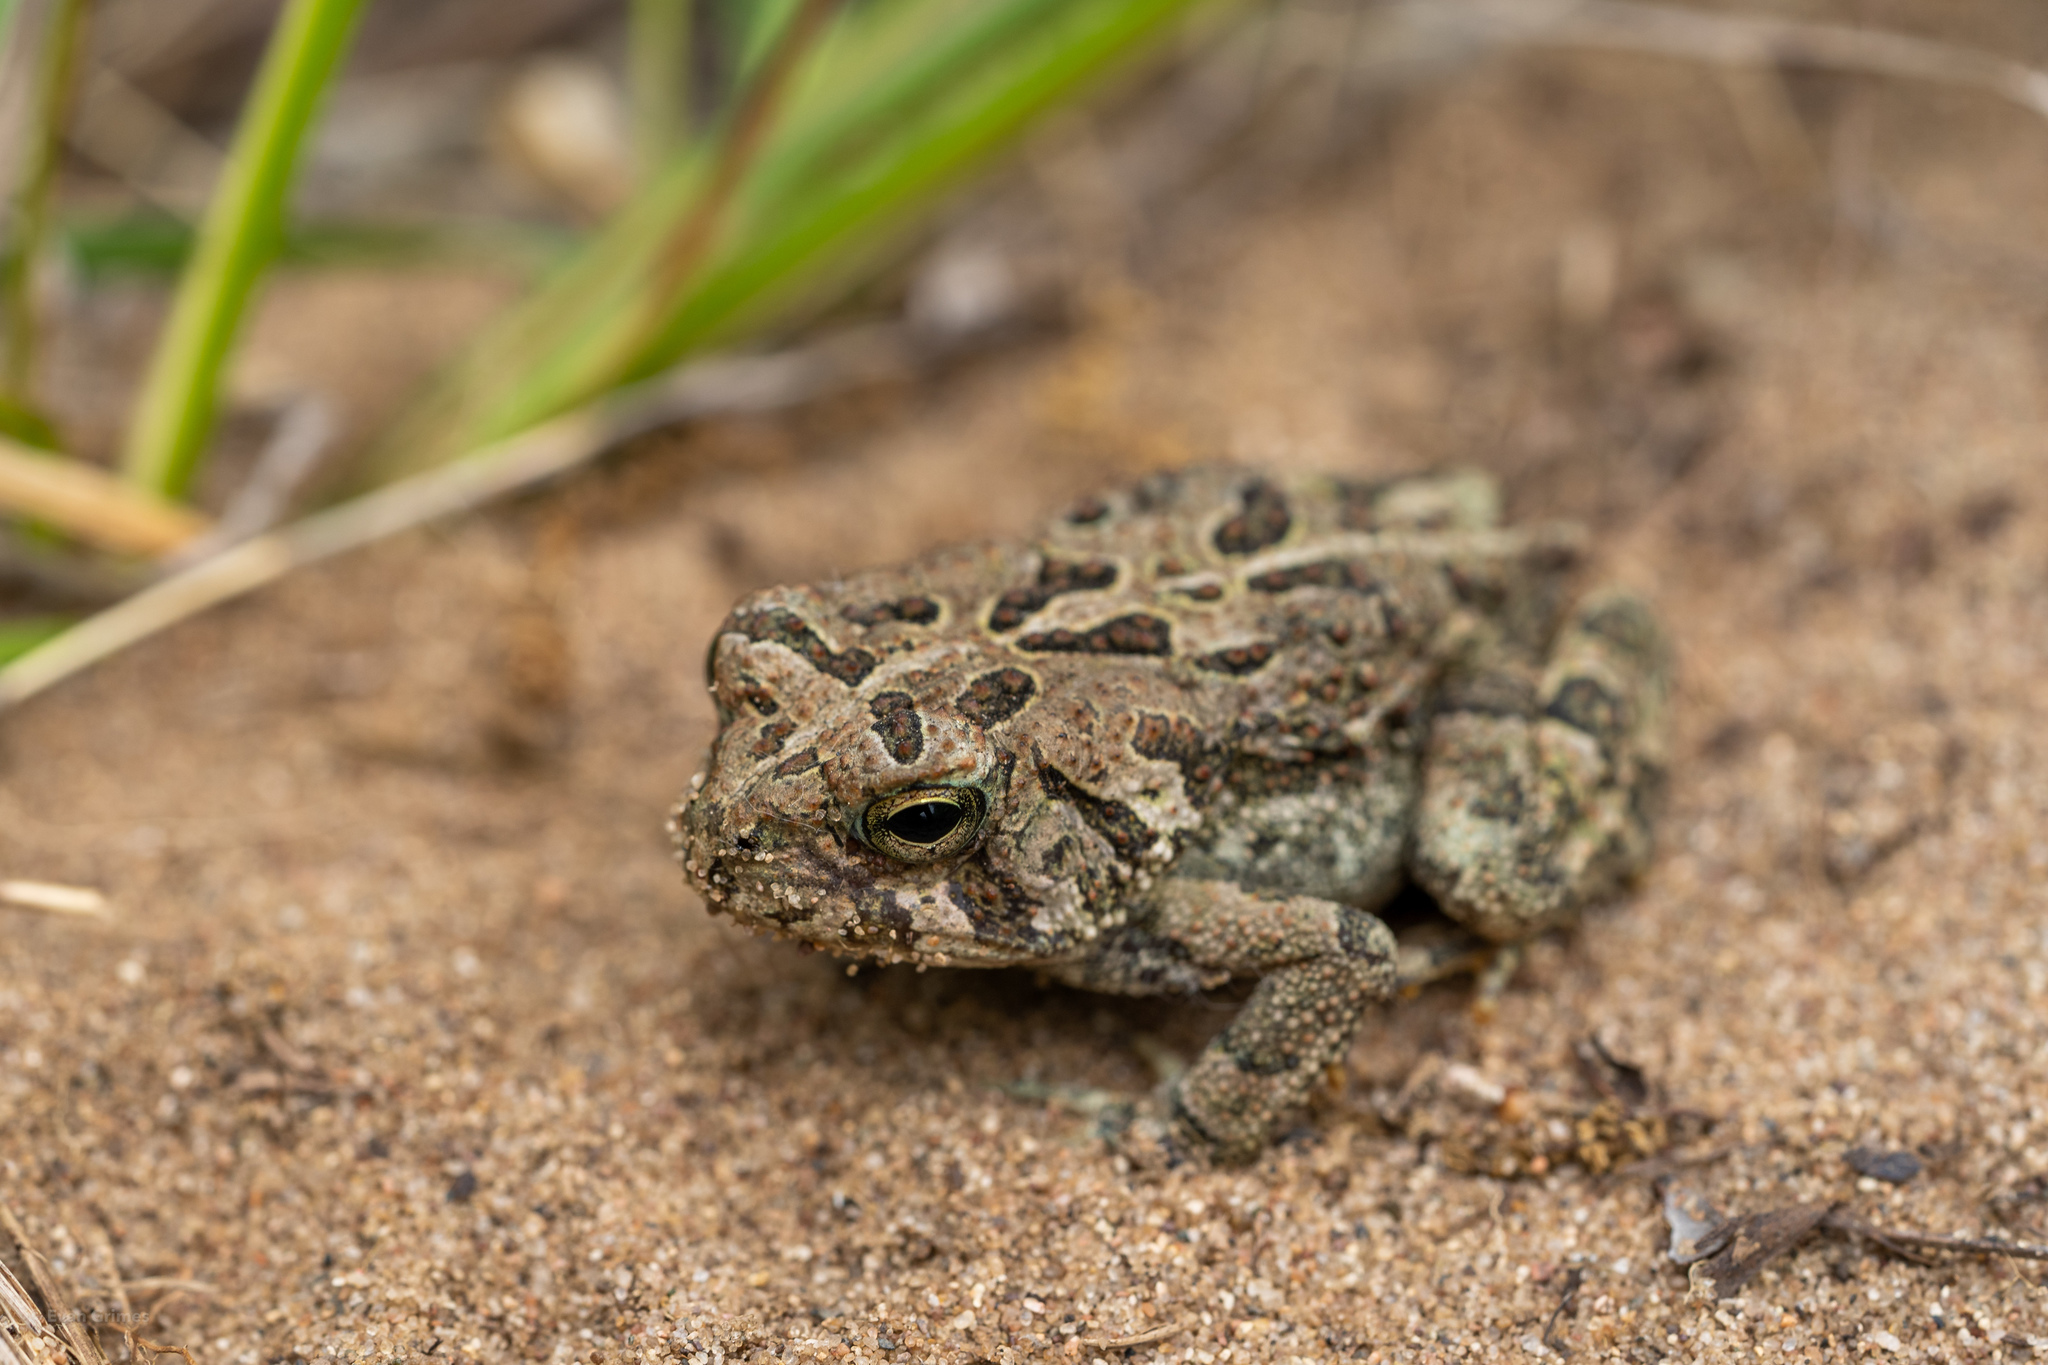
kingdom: Animalia
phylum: Chordata
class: Amphibia
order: Anura
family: Bufonidae
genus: Anaxyrus
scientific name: Anaxyrus fowleri
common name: Fowler's toad
